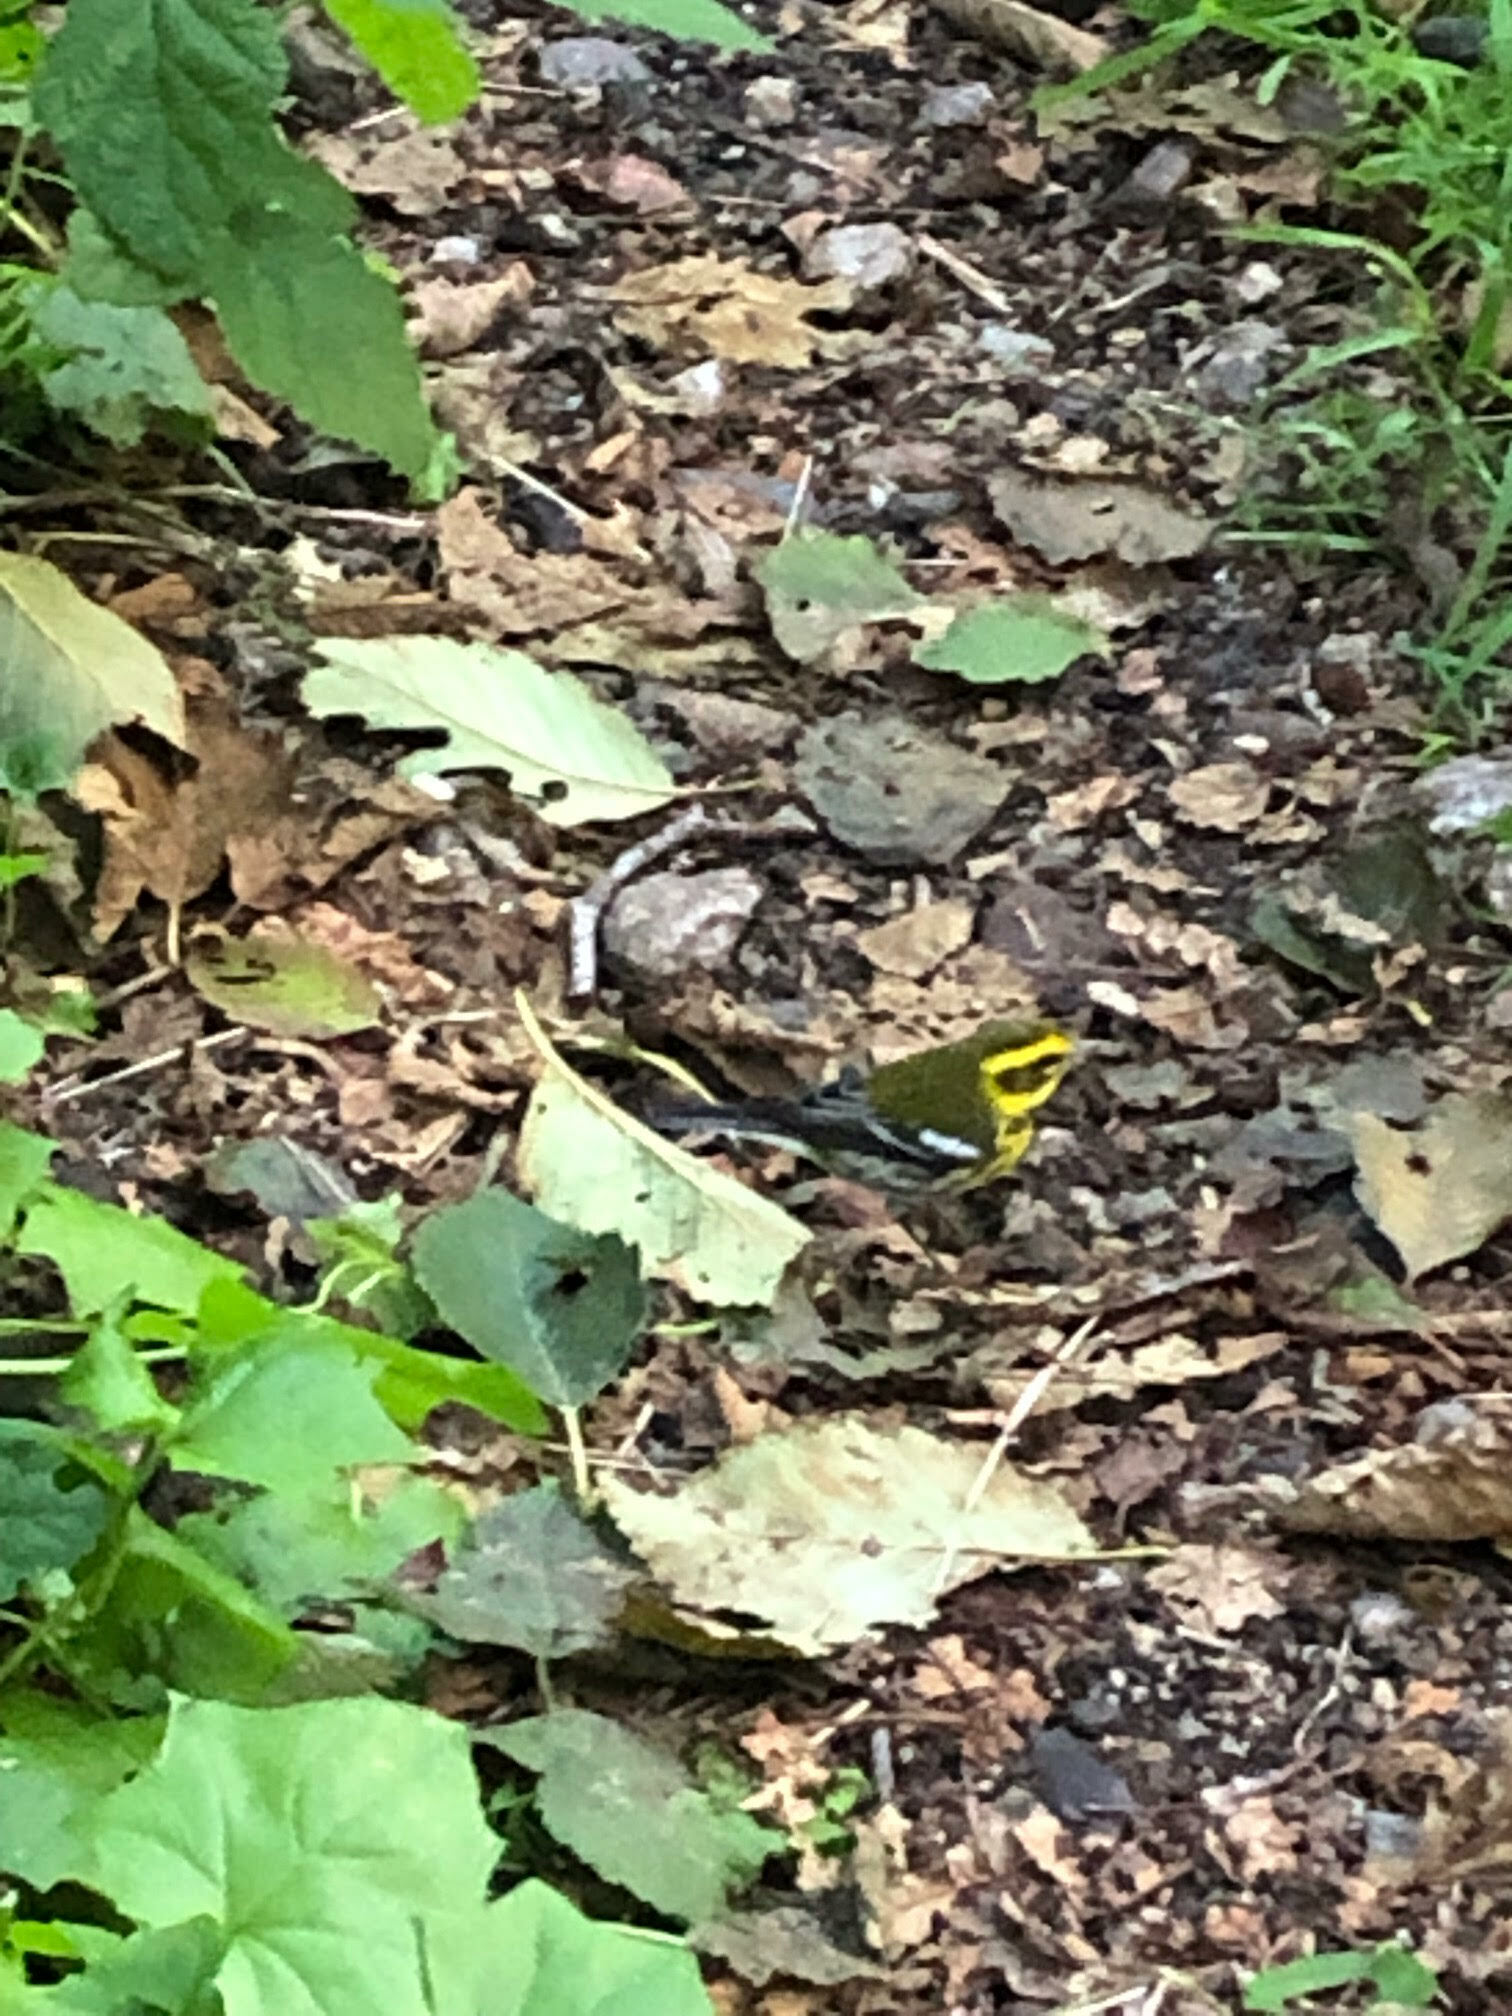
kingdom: Animalia
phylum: Chordata
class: Aves
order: Passeriformes
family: Parulidae
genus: Setophaga
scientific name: Setophaga townsendi
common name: Townsend's warbler
